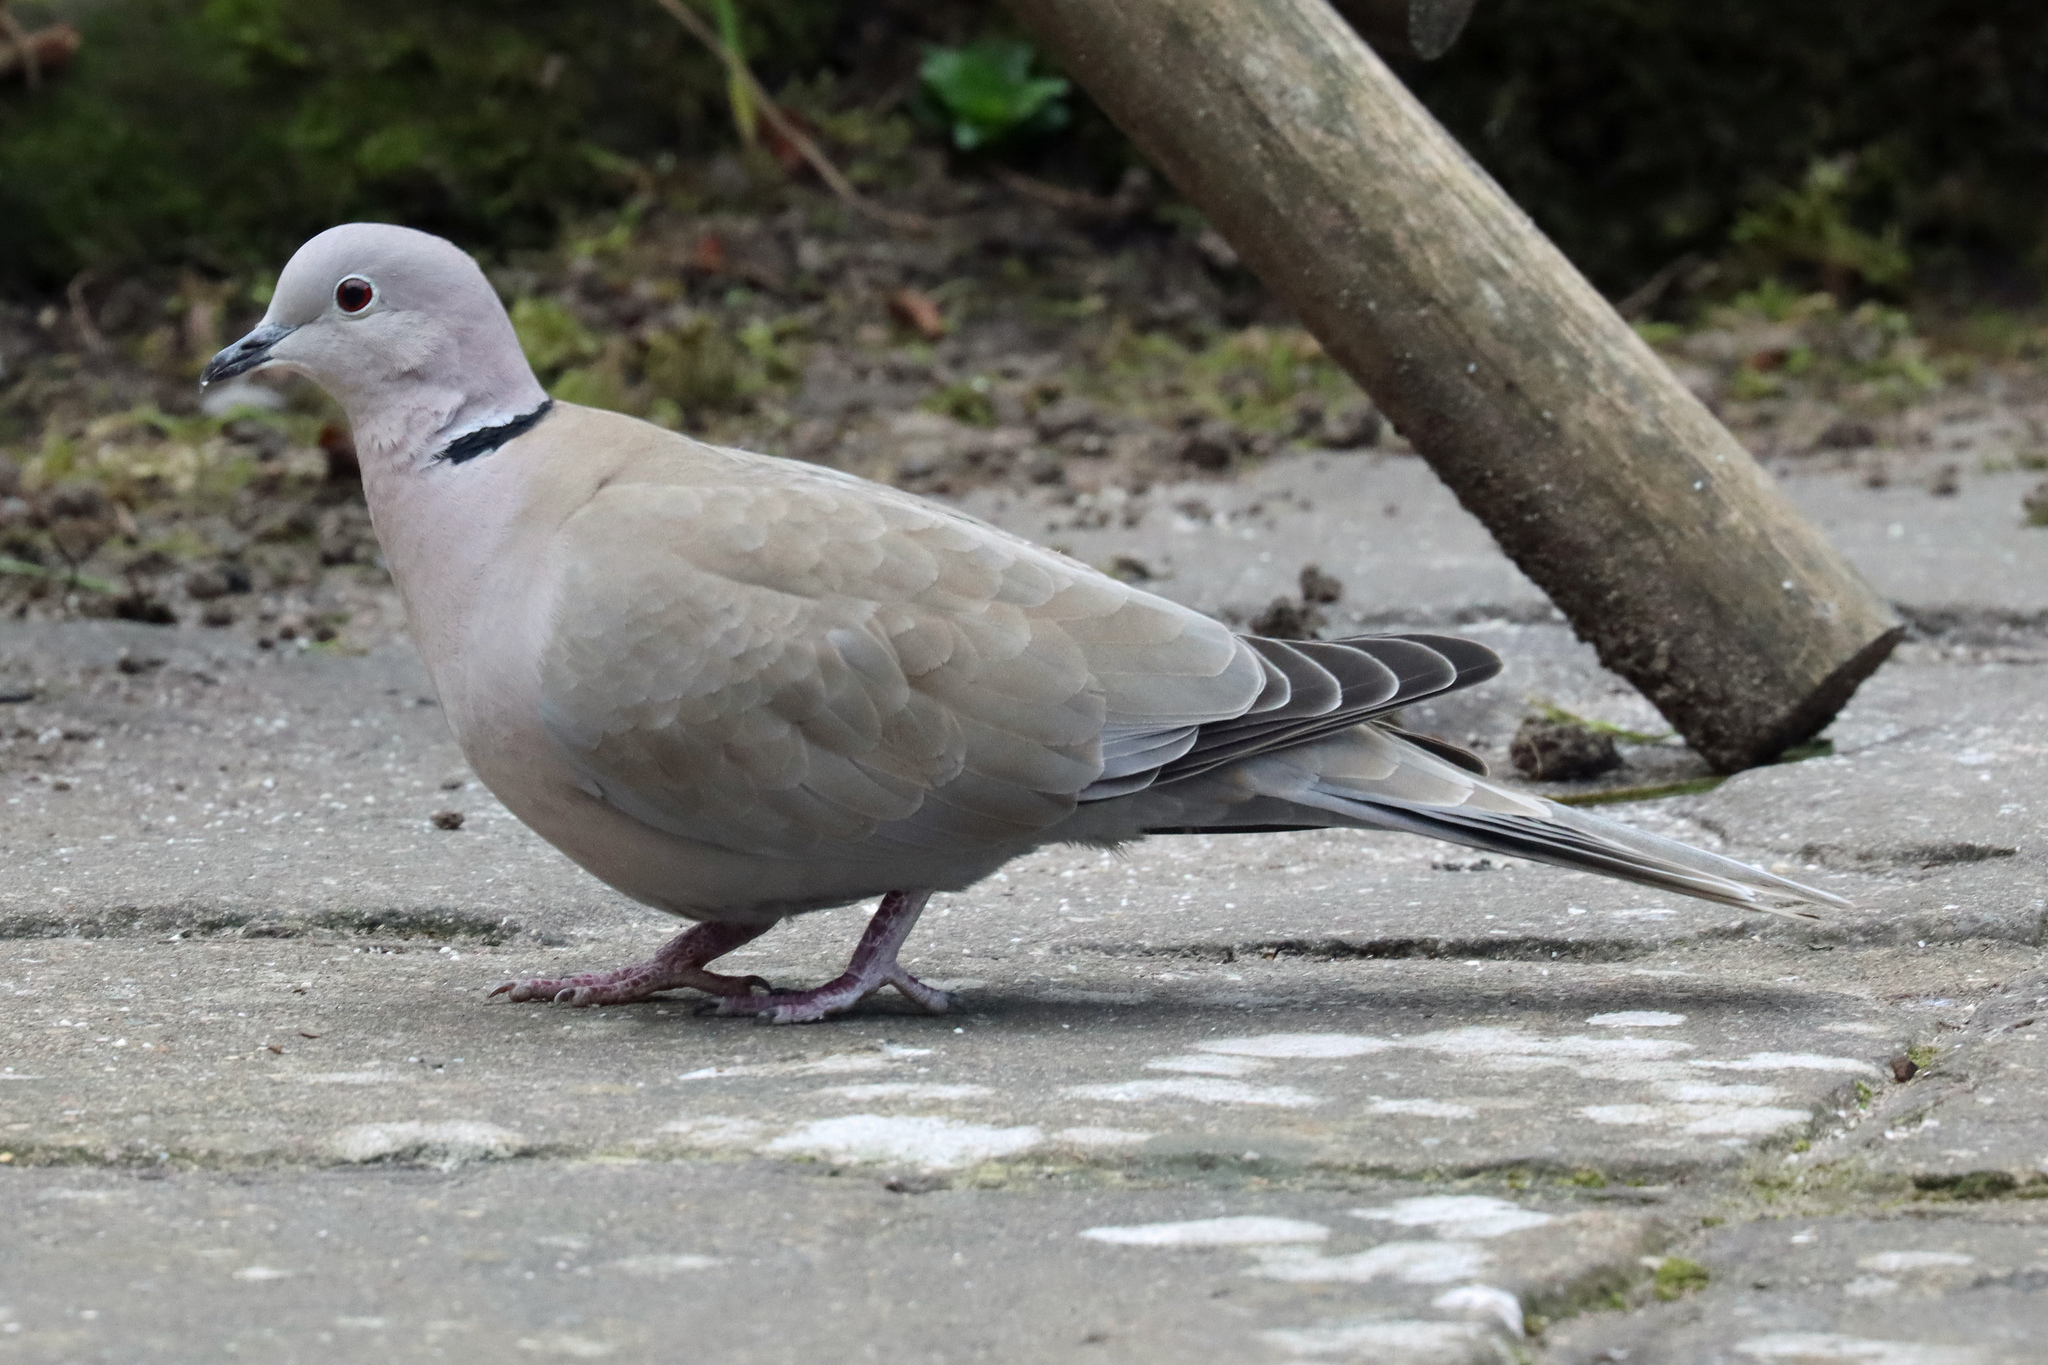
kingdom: Animalia
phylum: Chordata
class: Aves
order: Columbiformes
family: Columbidae
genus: Streptopelia
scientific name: Streptopelia decaocto
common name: Eurasian collared dove
